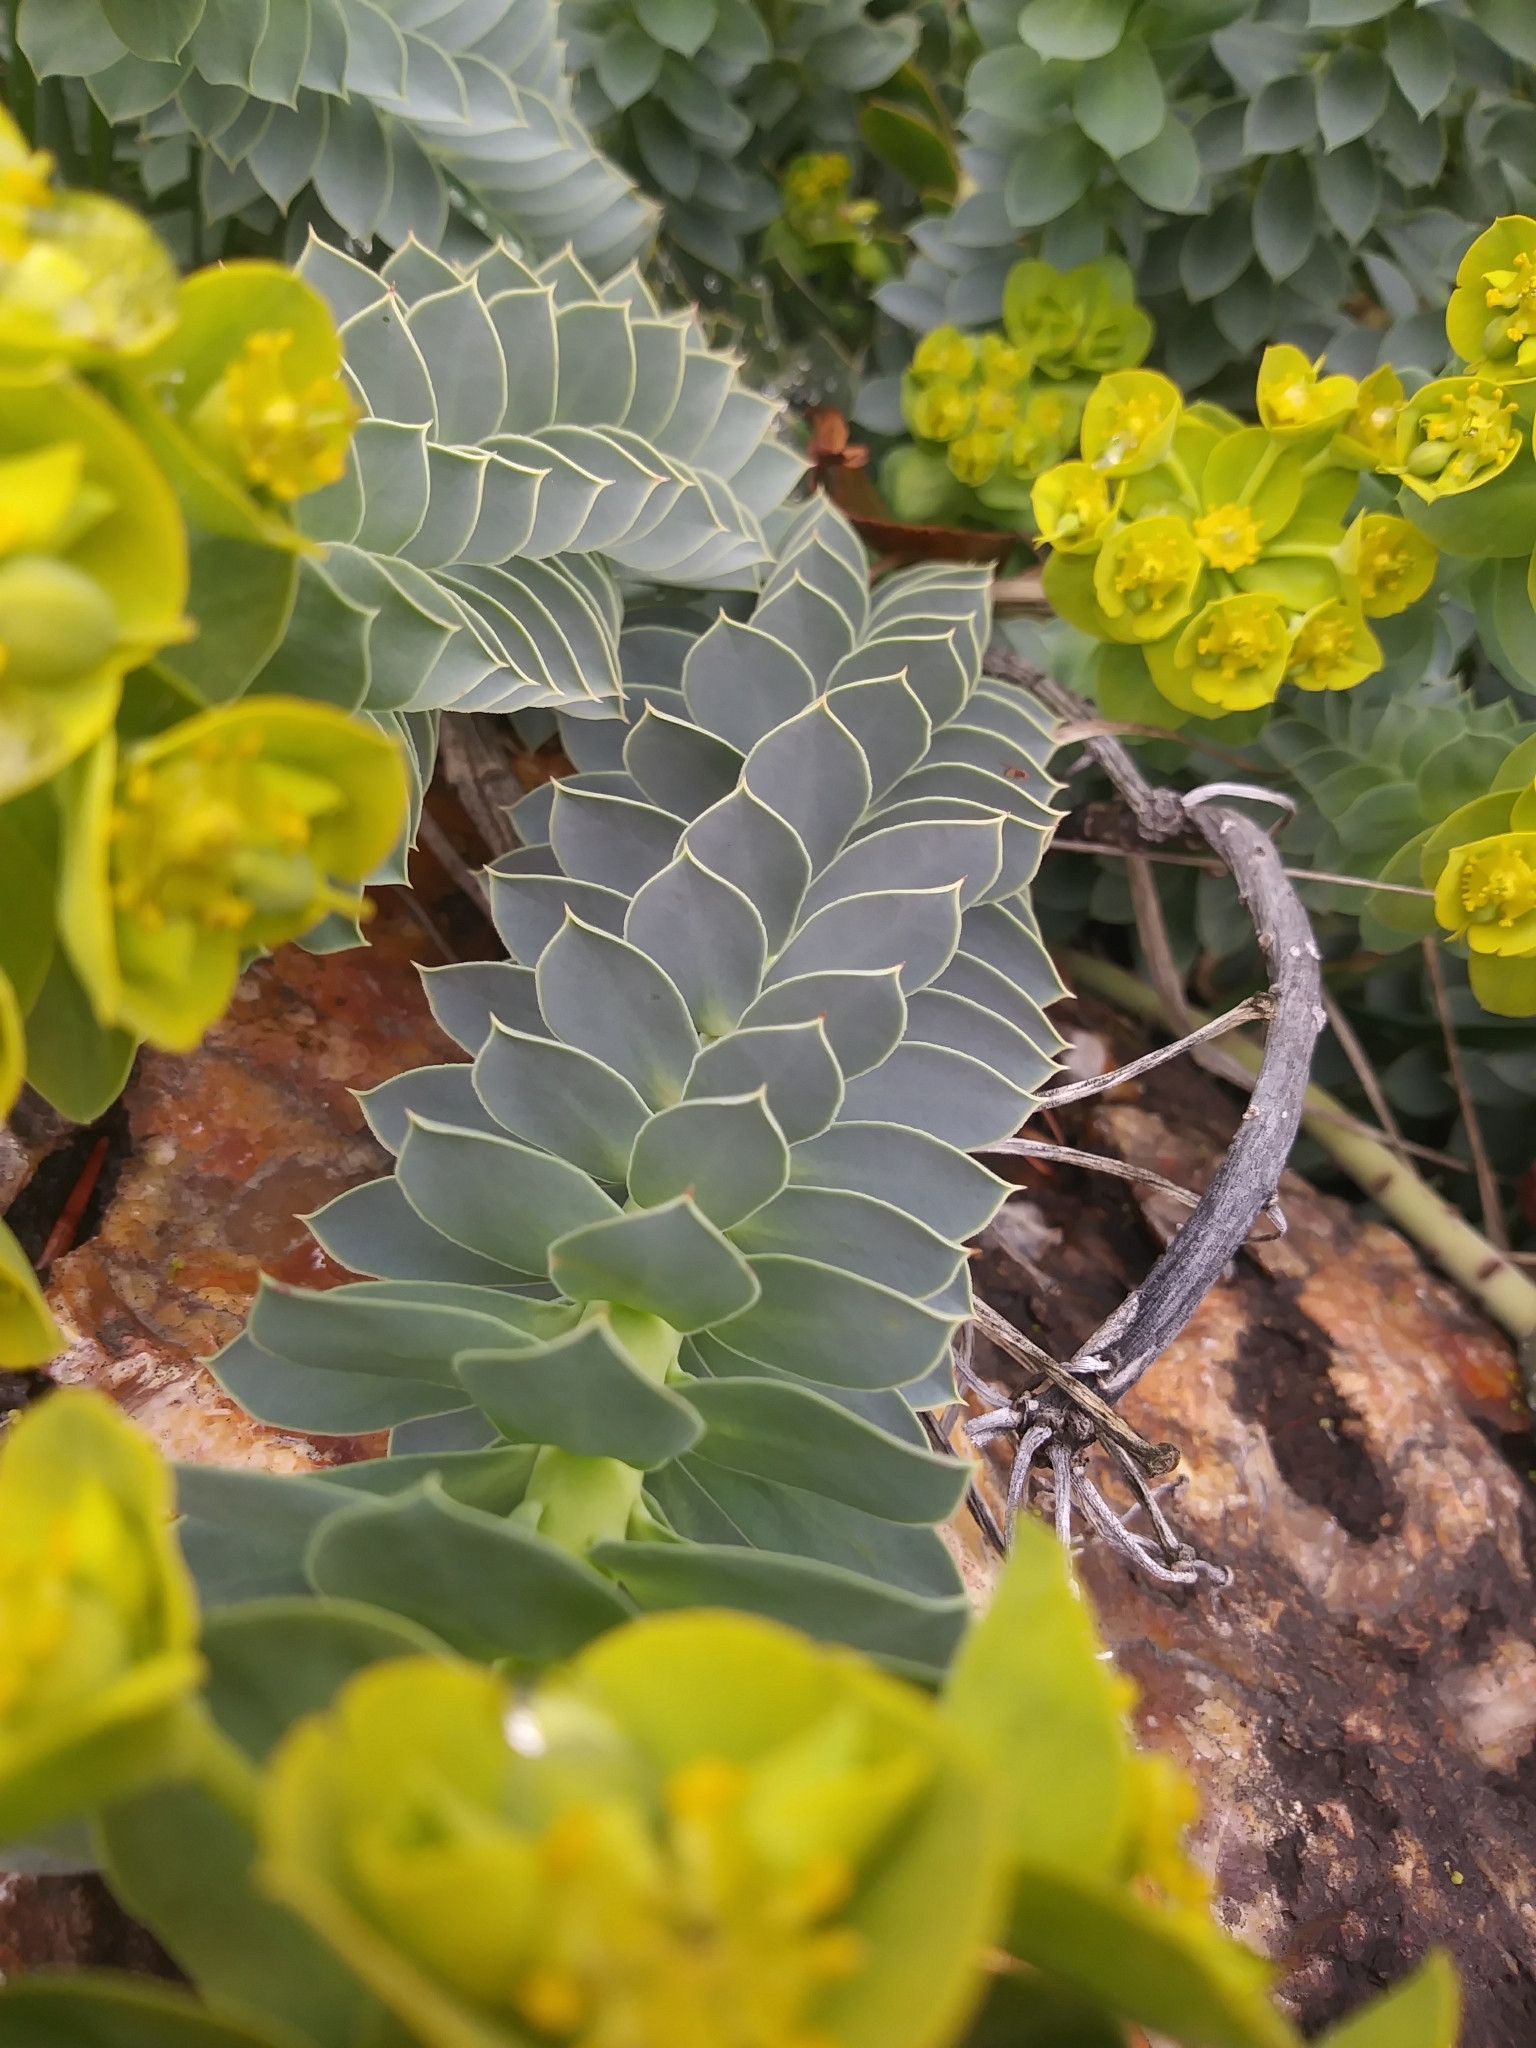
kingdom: Plantae
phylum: Tracheophyta
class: Magnoliopsida
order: Malpighiales
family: Euphorbiaceae
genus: Euphorbia
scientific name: Euphorbia myrsinites
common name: Myrtle spurge
